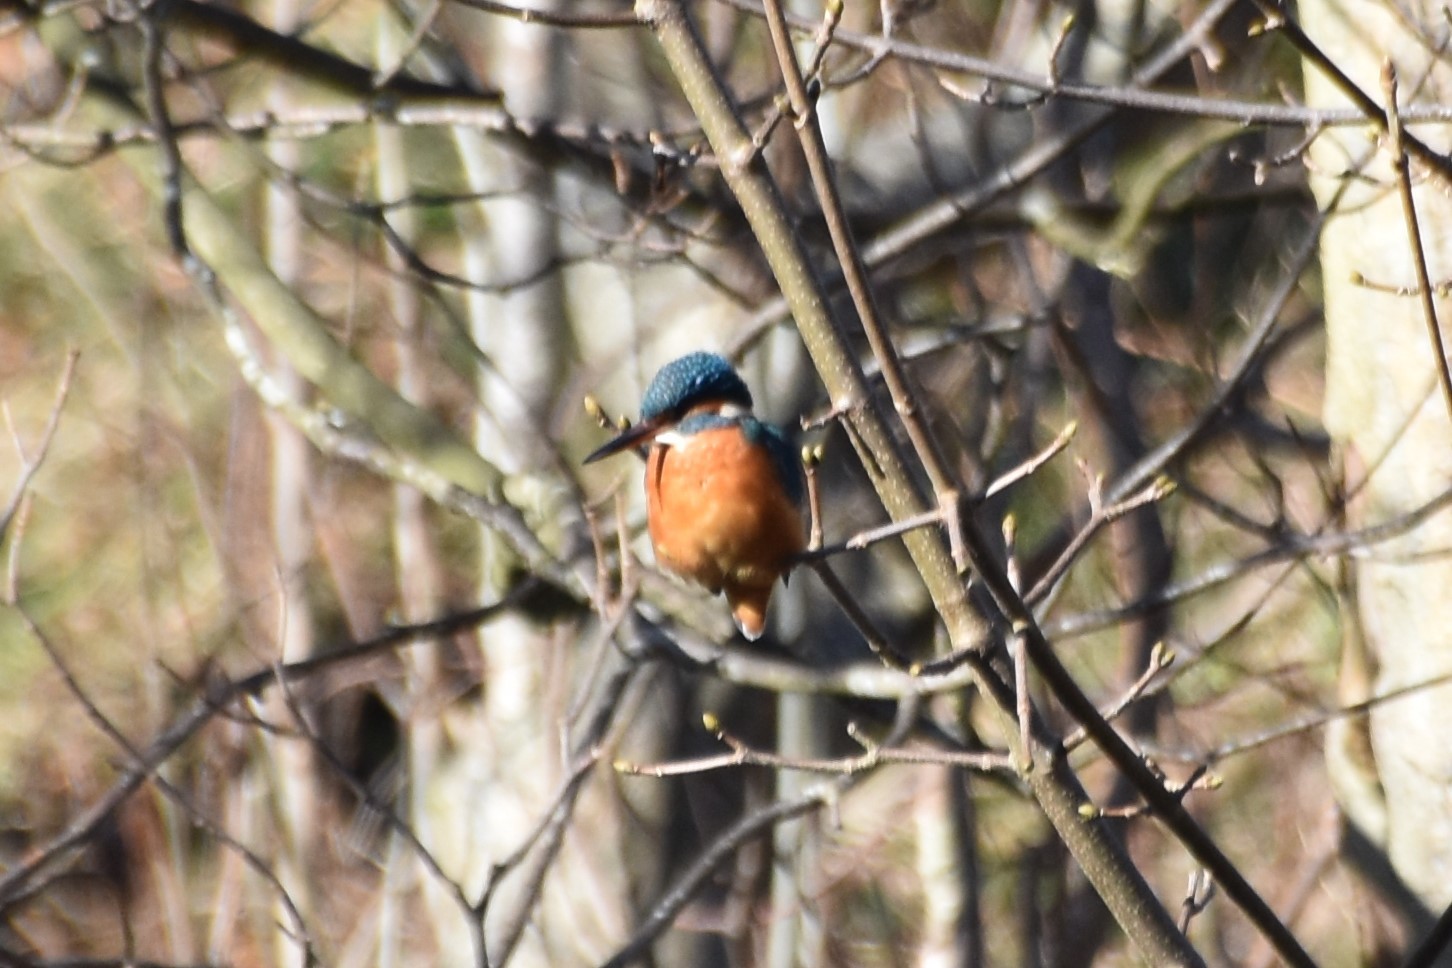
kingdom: Animalia
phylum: Chordata
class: Aves
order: Coraciiformes
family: Alcedinidae
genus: Alcedo
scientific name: Alcedo atthis
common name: Common kingfisher
